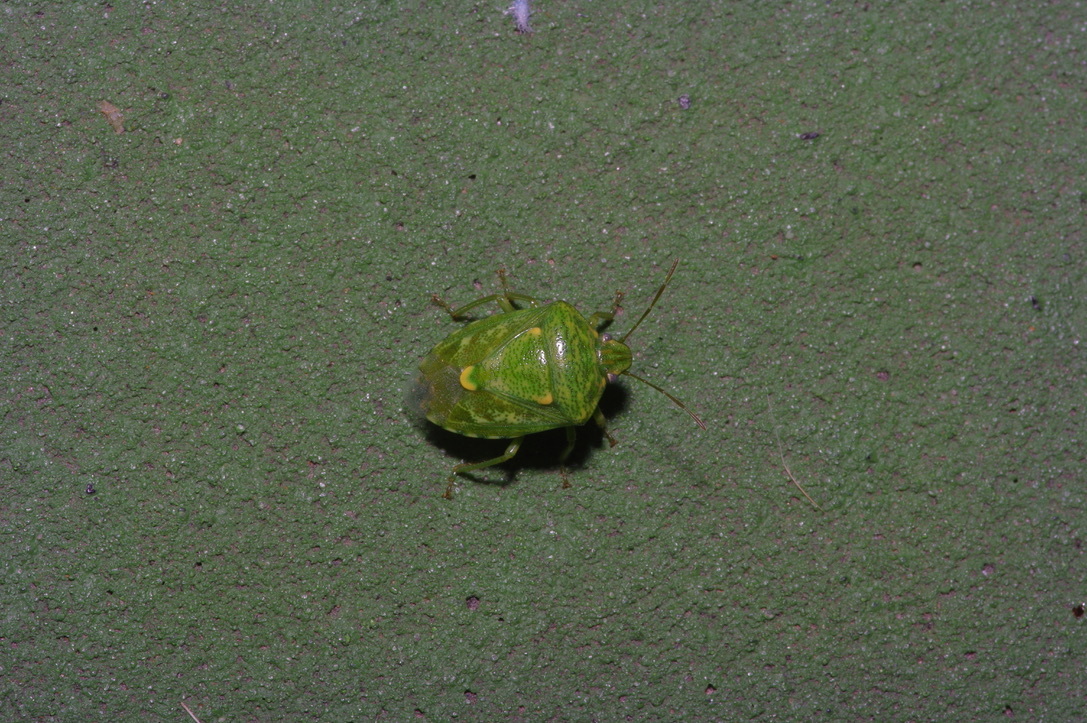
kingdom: Animalia
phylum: Arthropoda
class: Insecta
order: Hemiptera
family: Pentatomidae
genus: Banasa
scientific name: Banasa euchlora
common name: Cedar berry bug
